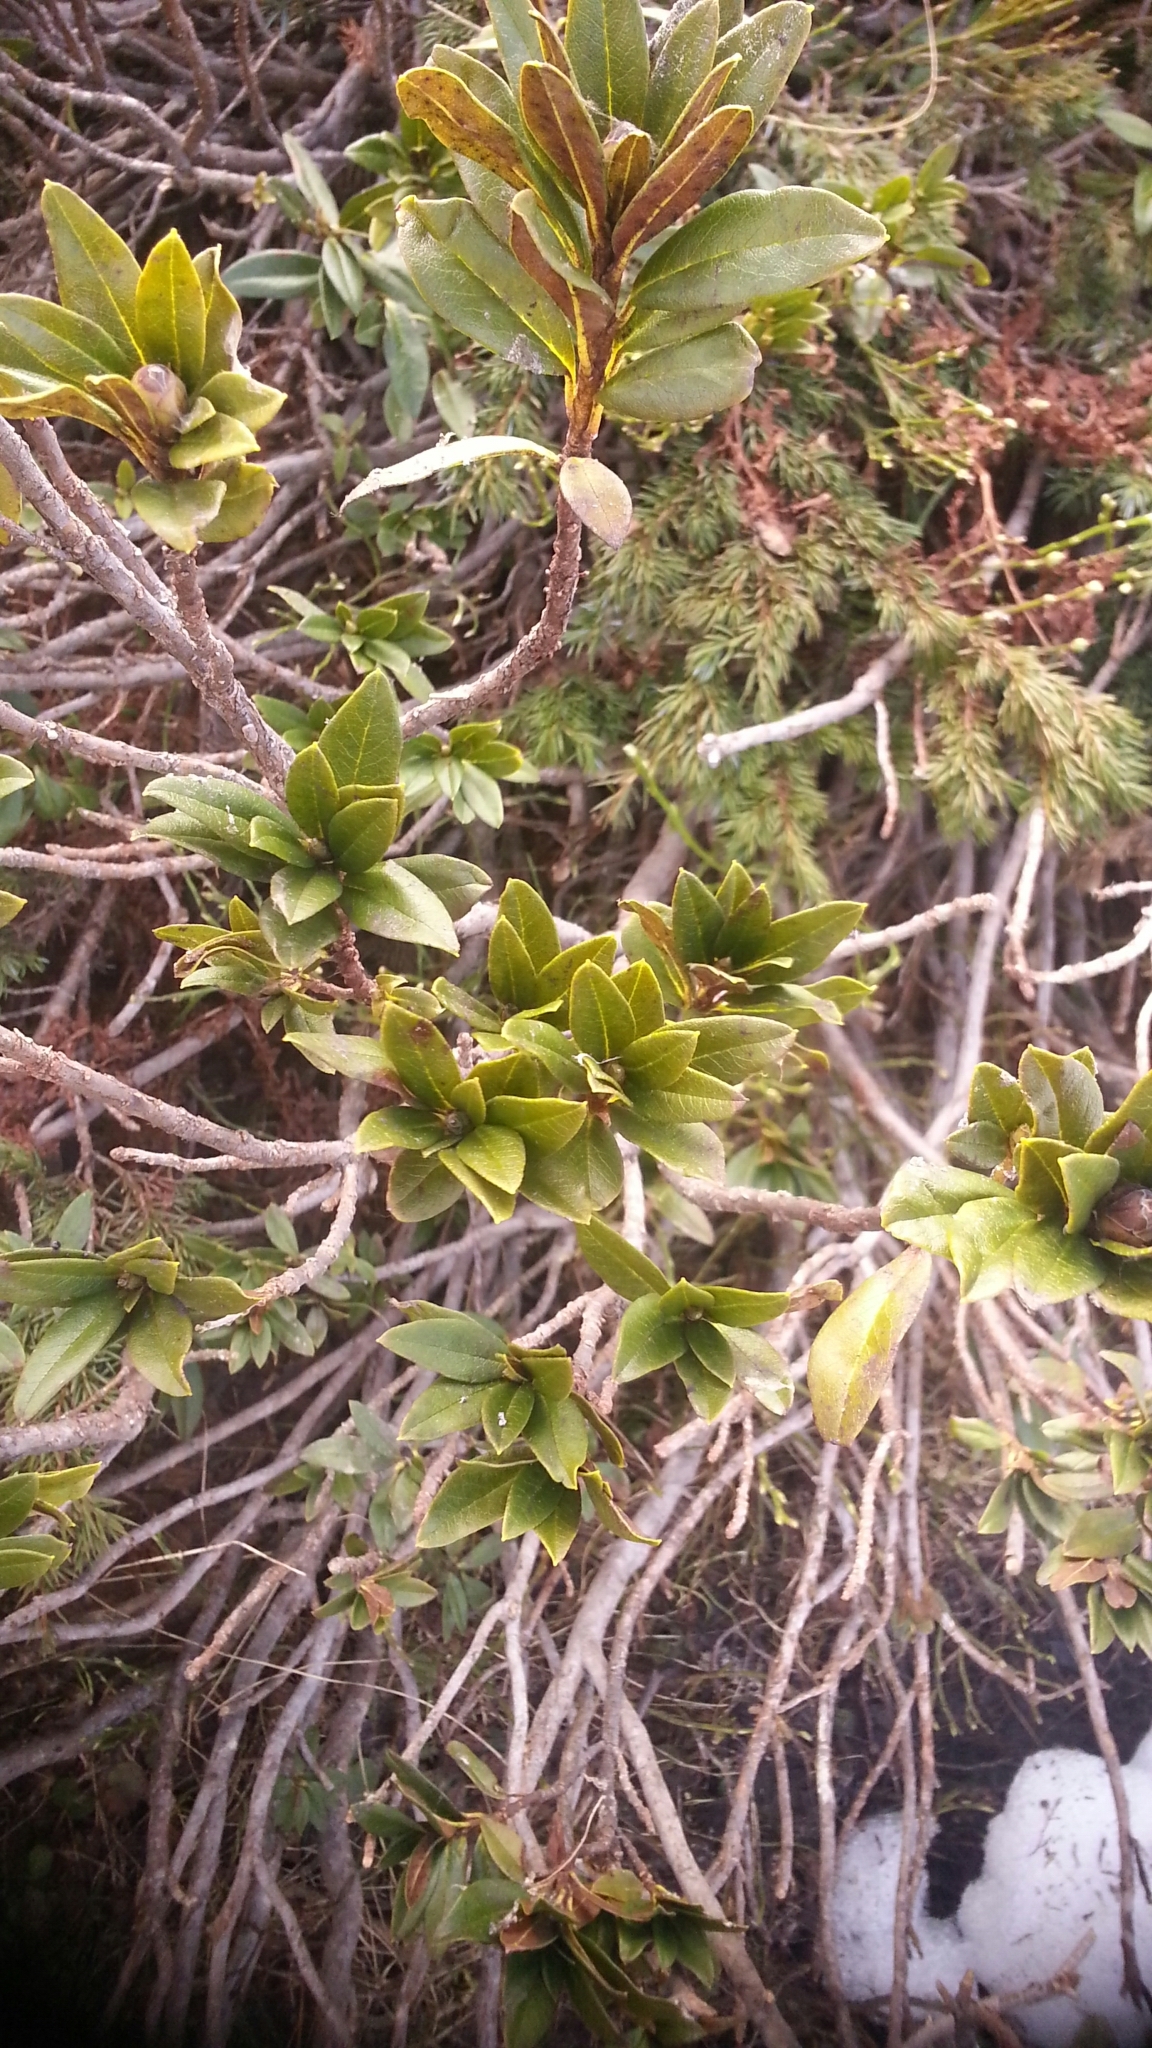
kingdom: Plantae
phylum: Tracheophyta
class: Magnoliopsida
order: Ericales
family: Ericaceae
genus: Rhododendron
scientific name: Rhododendron ferrugineum
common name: Alpenrose
